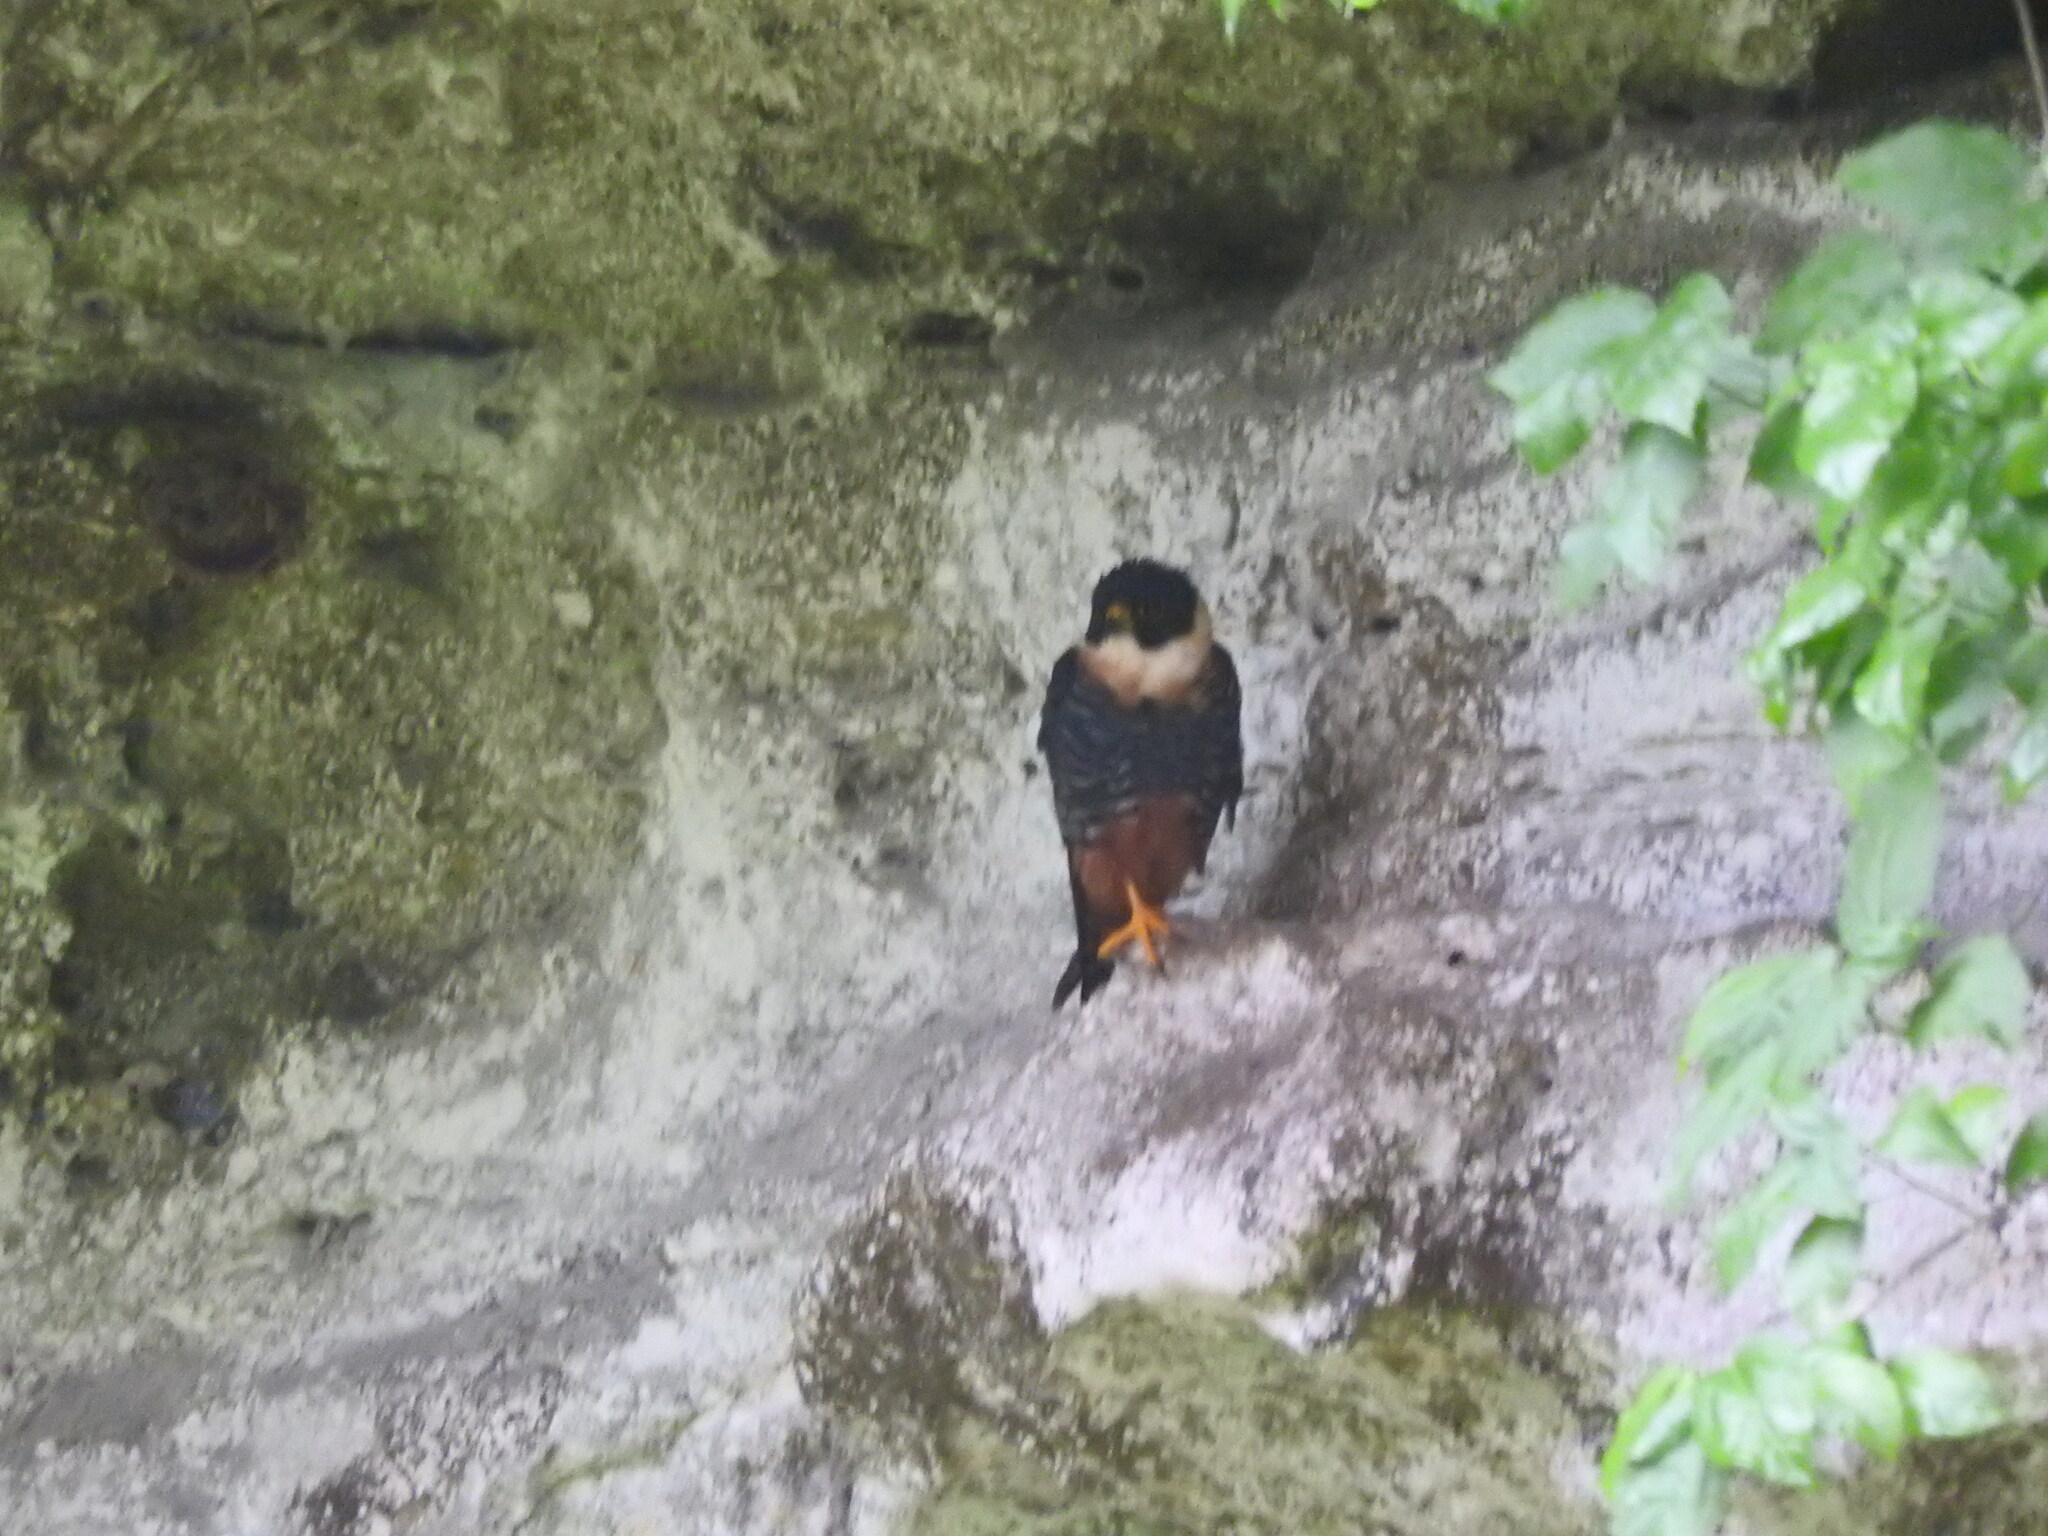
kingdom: Animalia
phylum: Chordata
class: Aves
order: Falconiformes
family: Falconidae
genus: Falco
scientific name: Falco rufigularis
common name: Bat falcon
